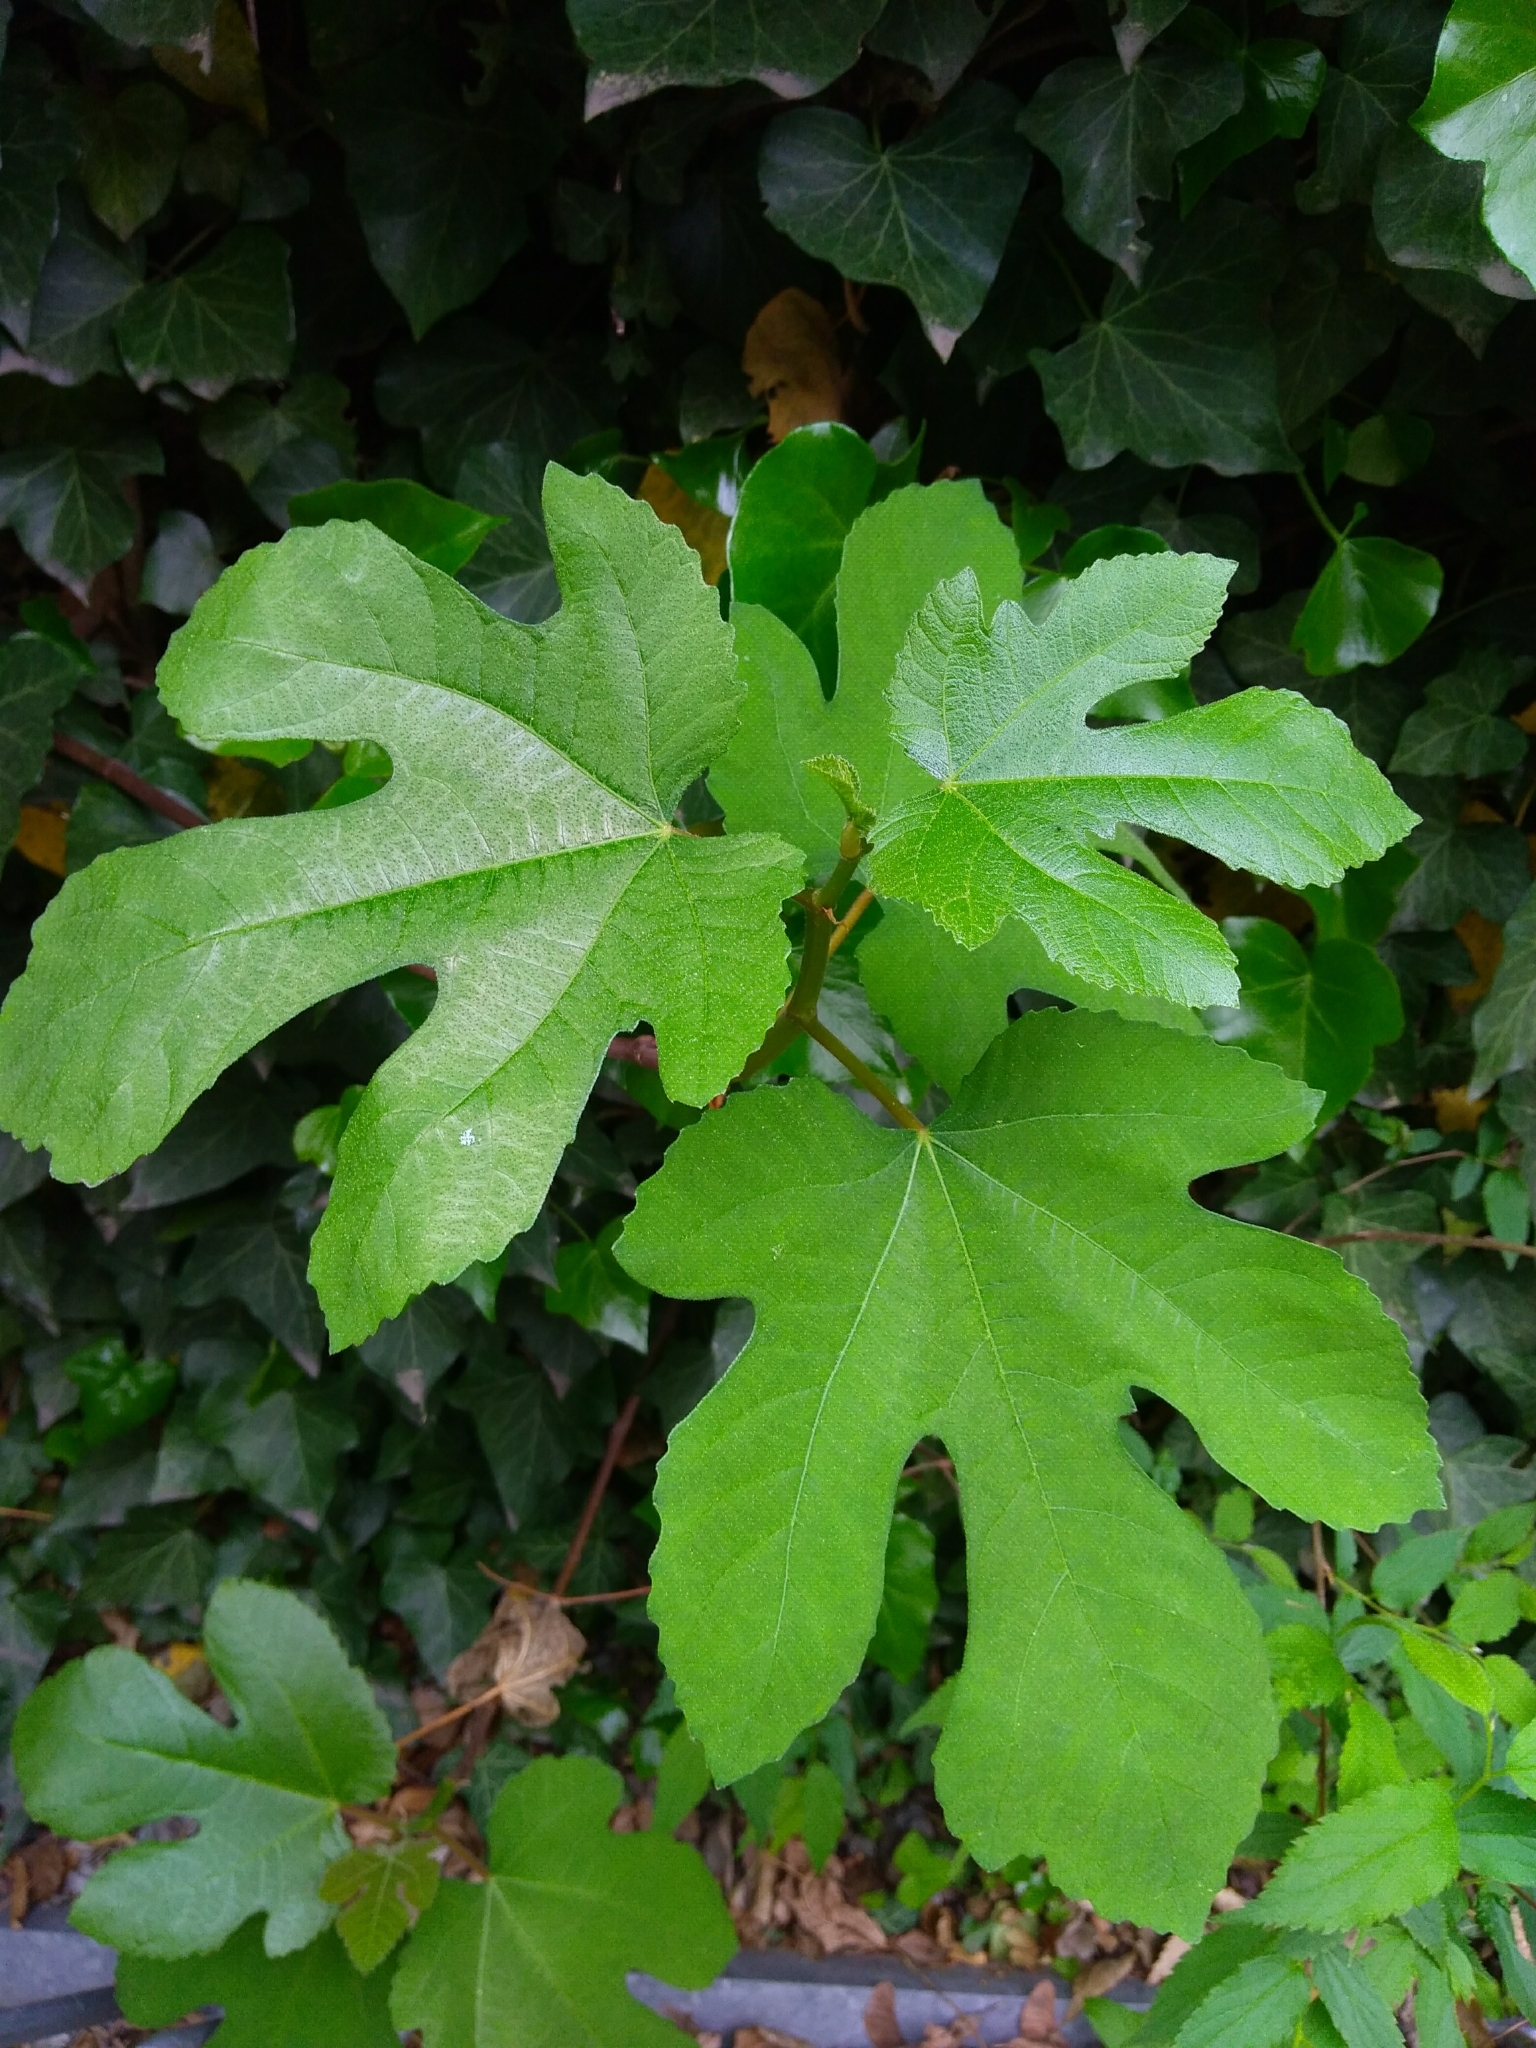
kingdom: Plantae
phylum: Tracheophyta
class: Magnoliopsida
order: Rosales
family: Moraceae
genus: Ficus
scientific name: Ficus carica
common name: Fig
